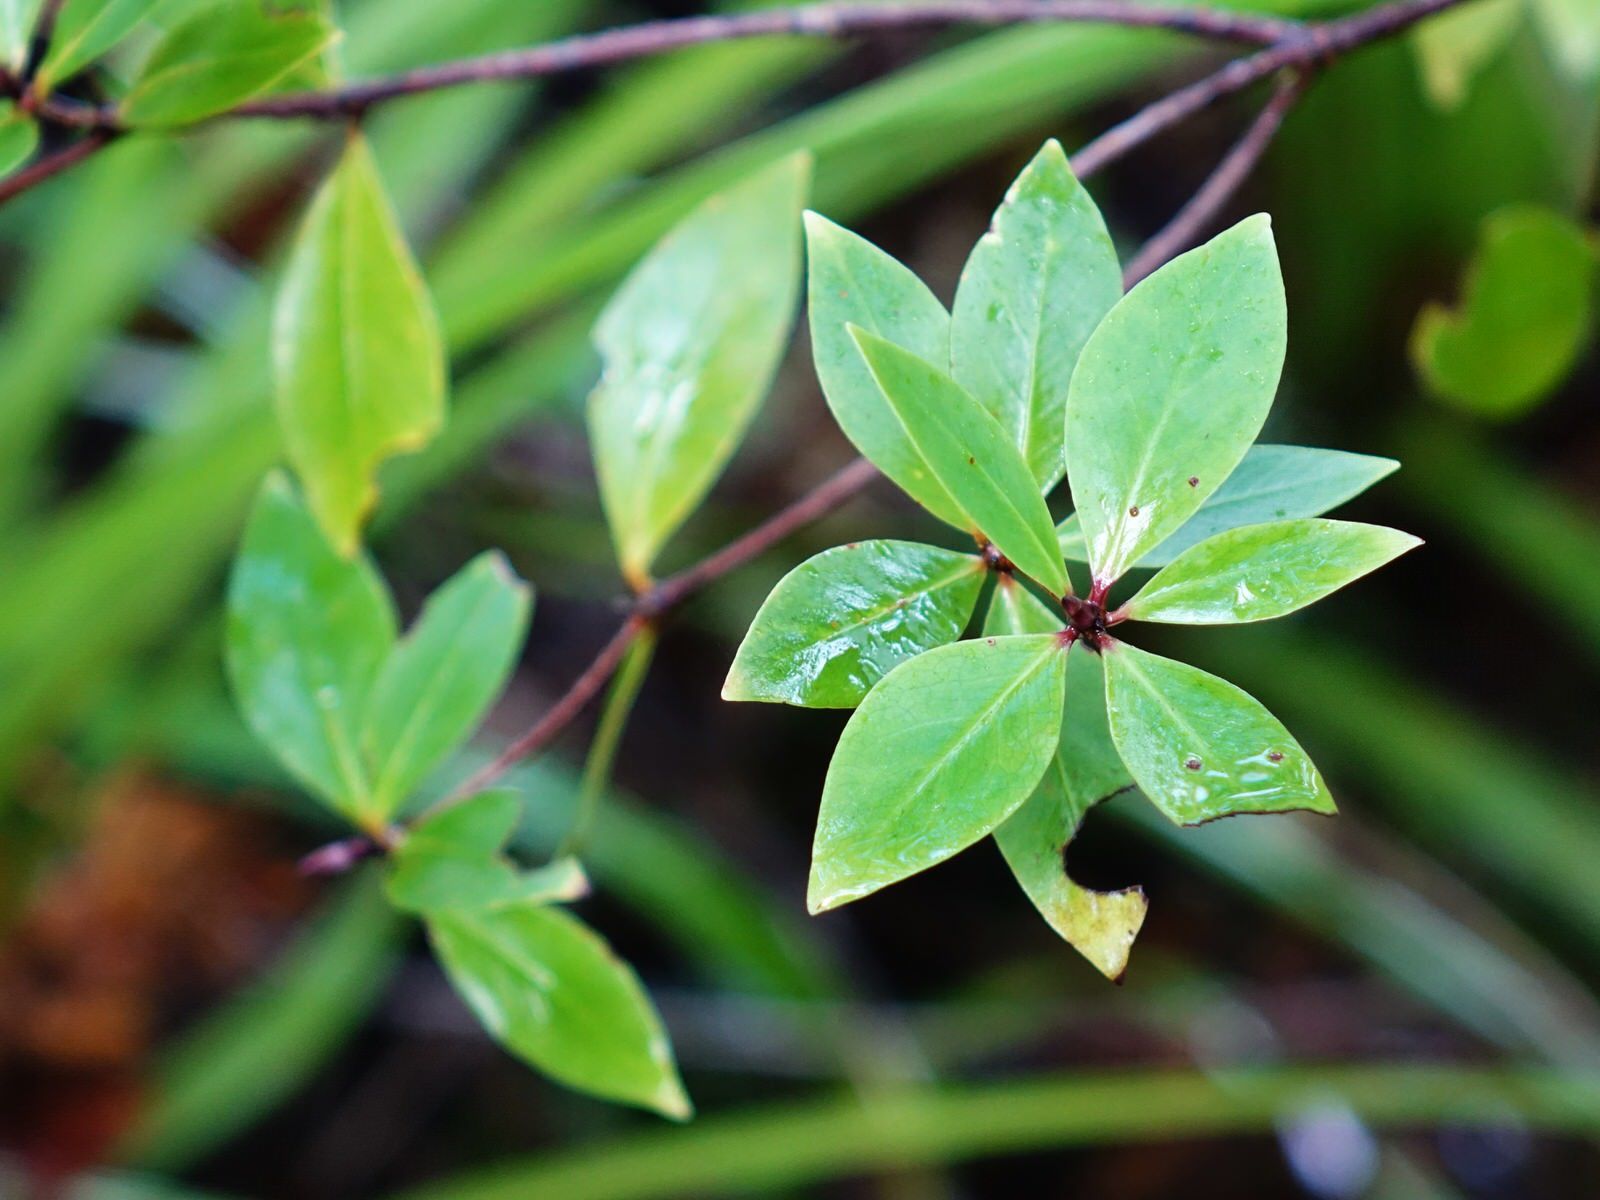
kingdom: Plantae
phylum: Tracheophyta
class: Magnoliopsida
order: Apiales
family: Pittosporaceae
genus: Pittosporum
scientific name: Pittosporum cornifolium
